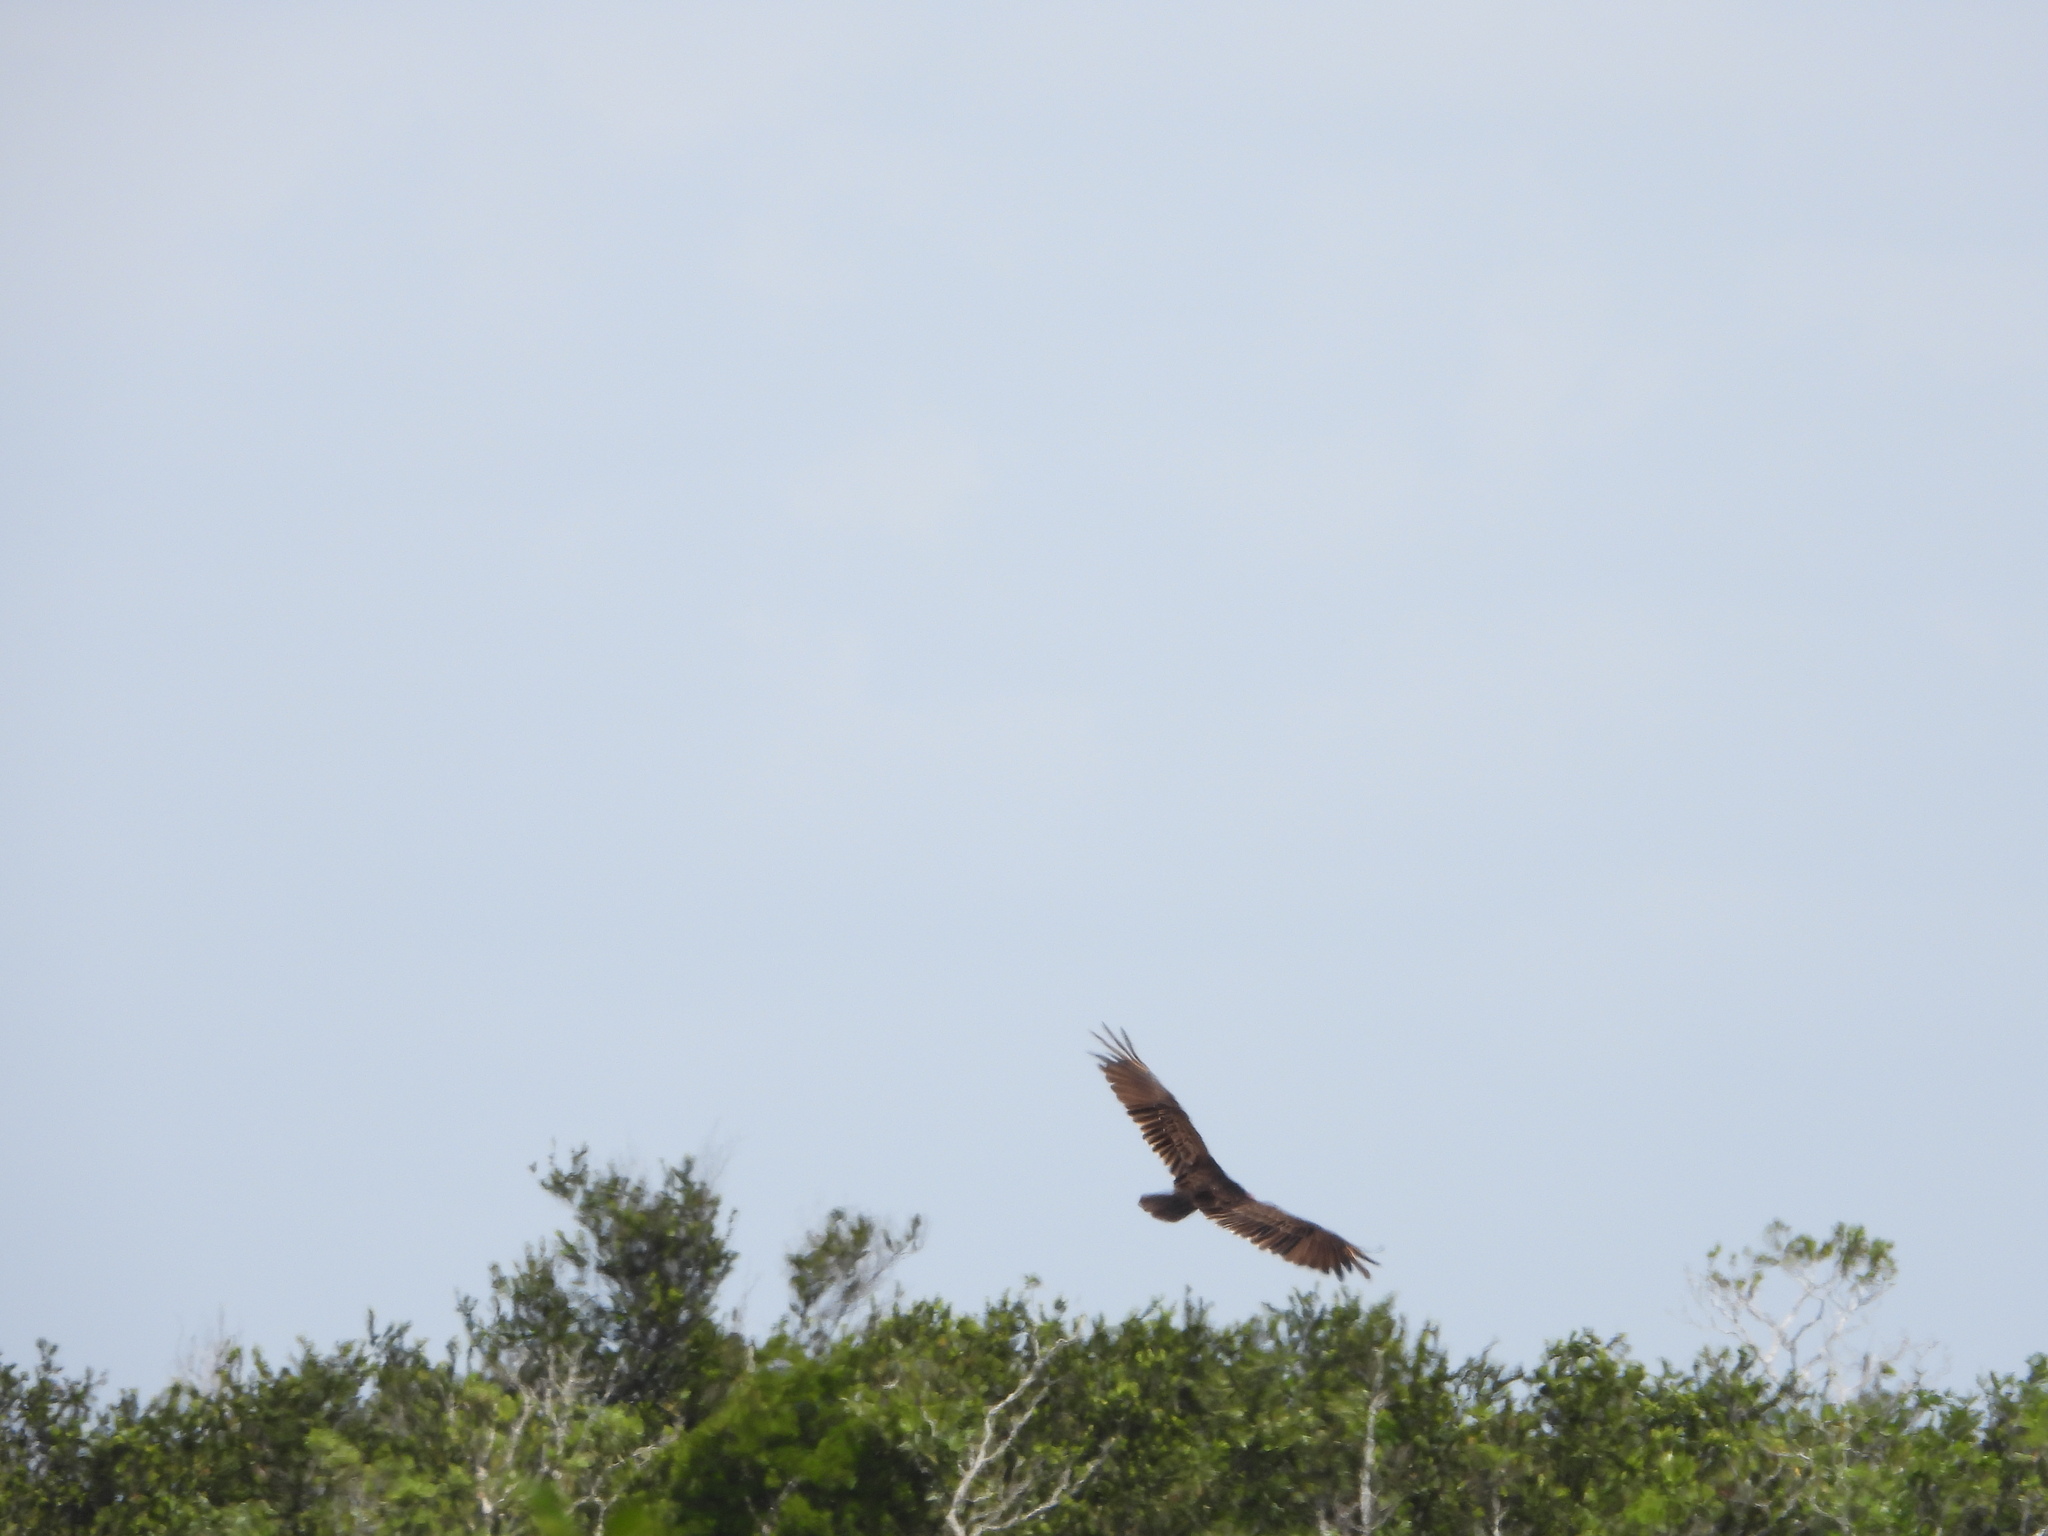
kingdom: Animalia
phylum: Chordata
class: Aves
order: Accipitriformes
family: Cathartidae
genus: Cathartes
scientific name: Cathartes aura
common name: Turkey vulture
